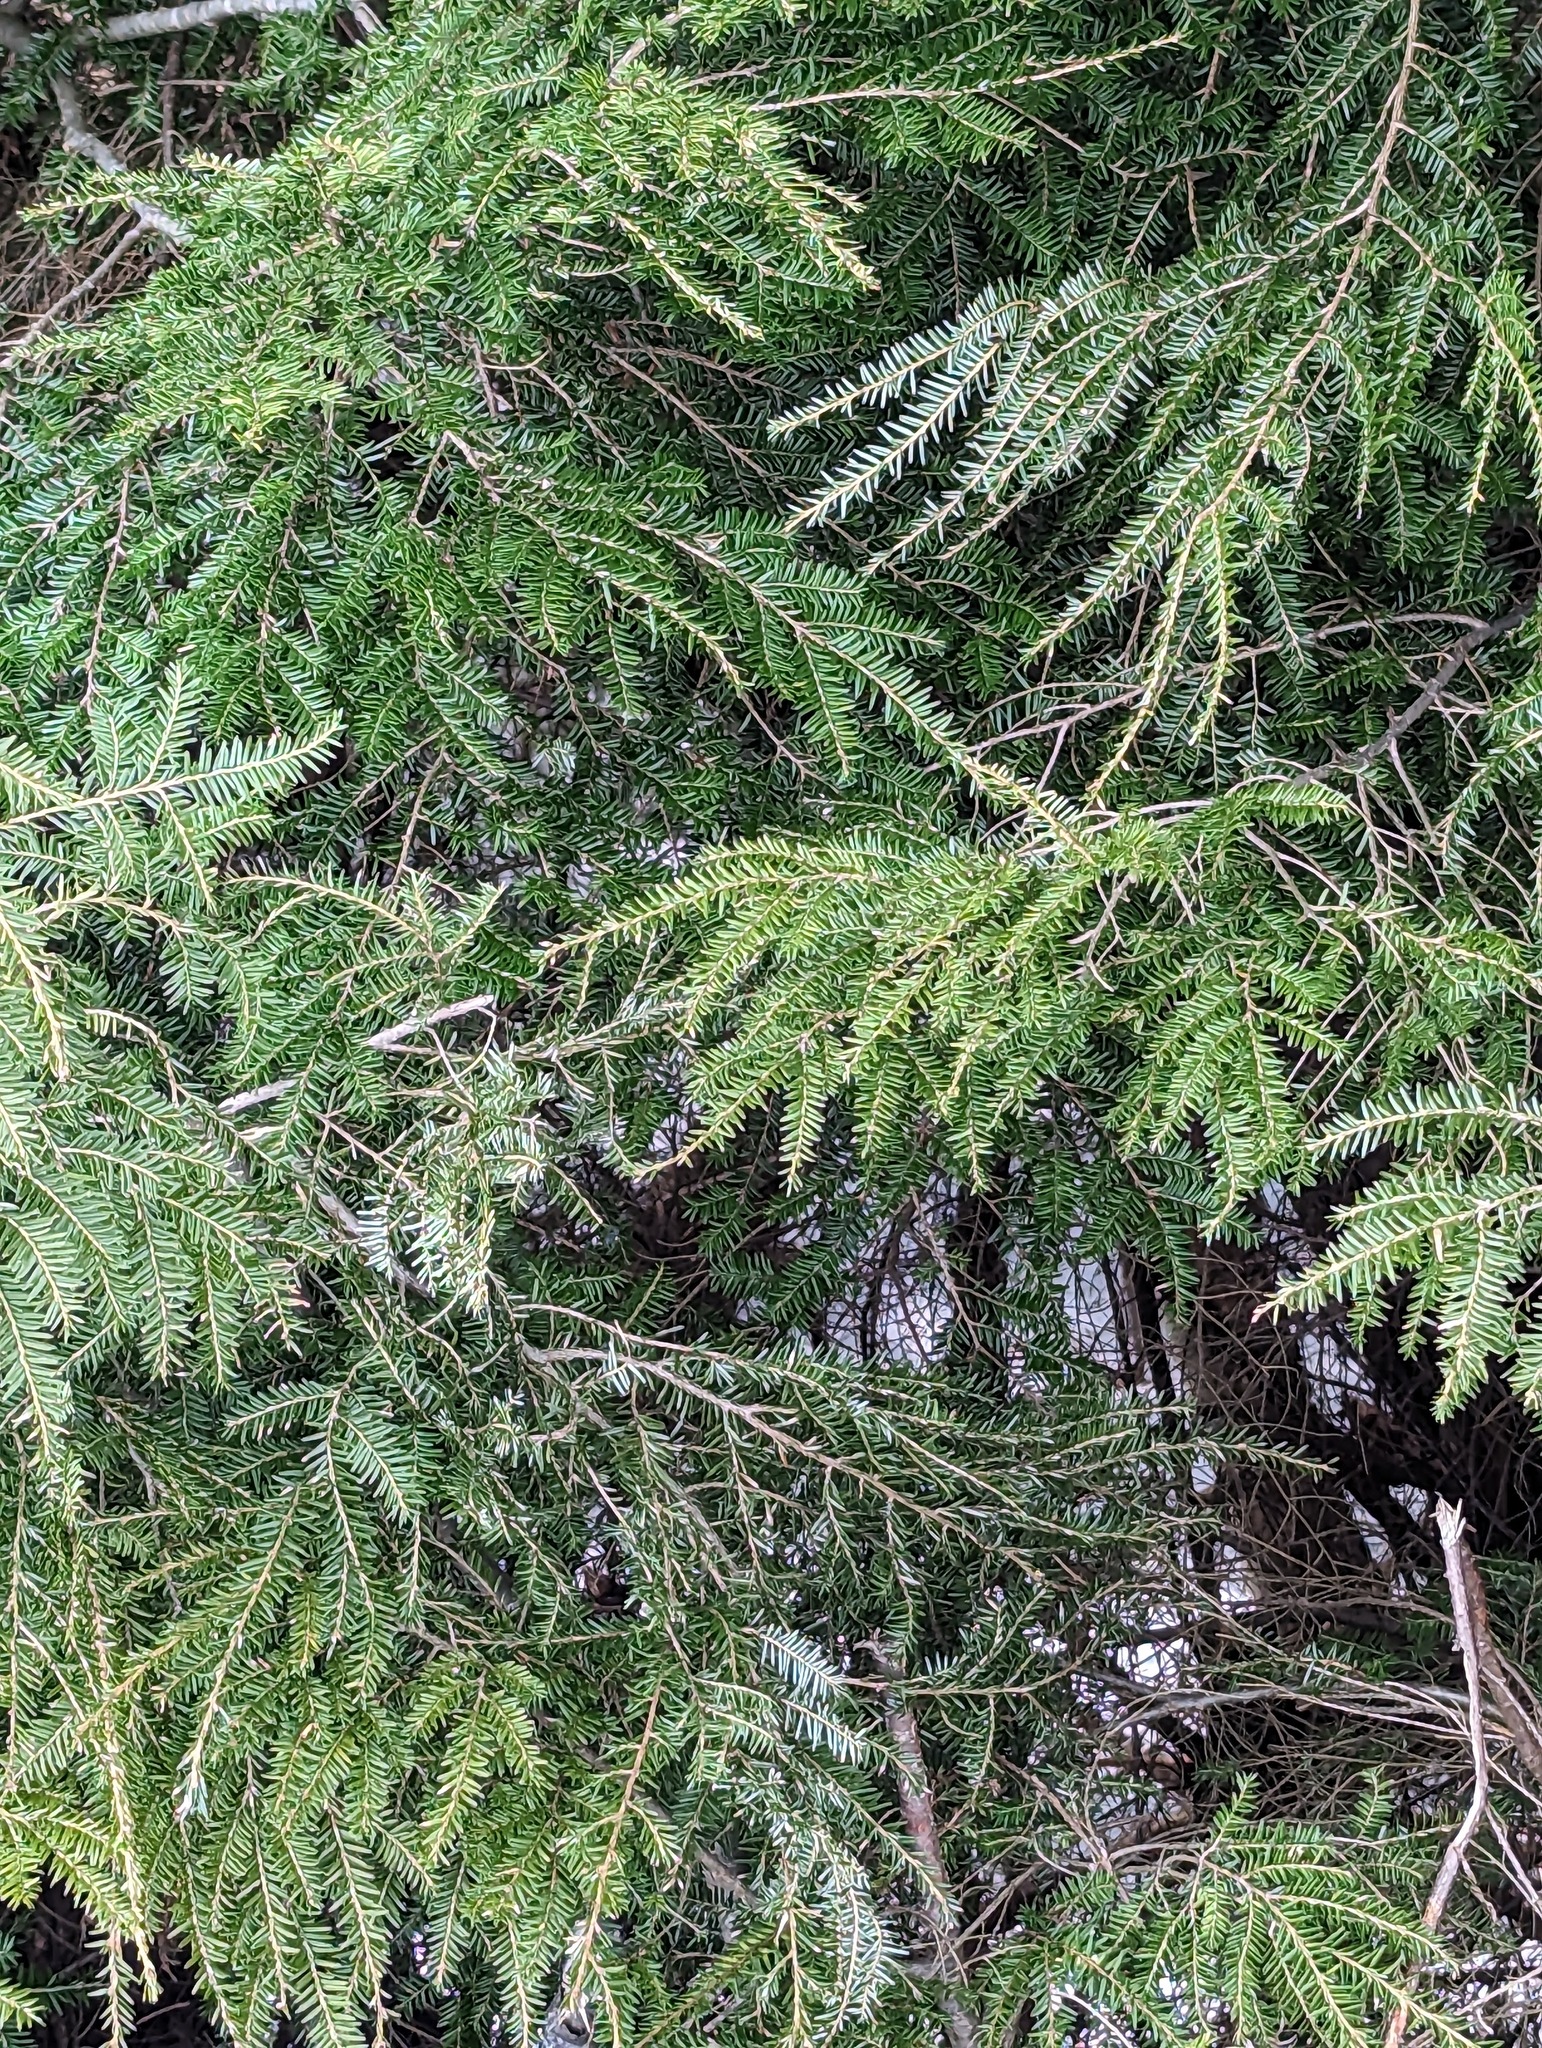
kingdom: Plantae
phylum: Tracheophyta
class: Pinopsida
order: Pinales
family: Pinaceae
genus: Tsuga
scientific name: Tsuga canadensis
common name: Eastern hemlock
